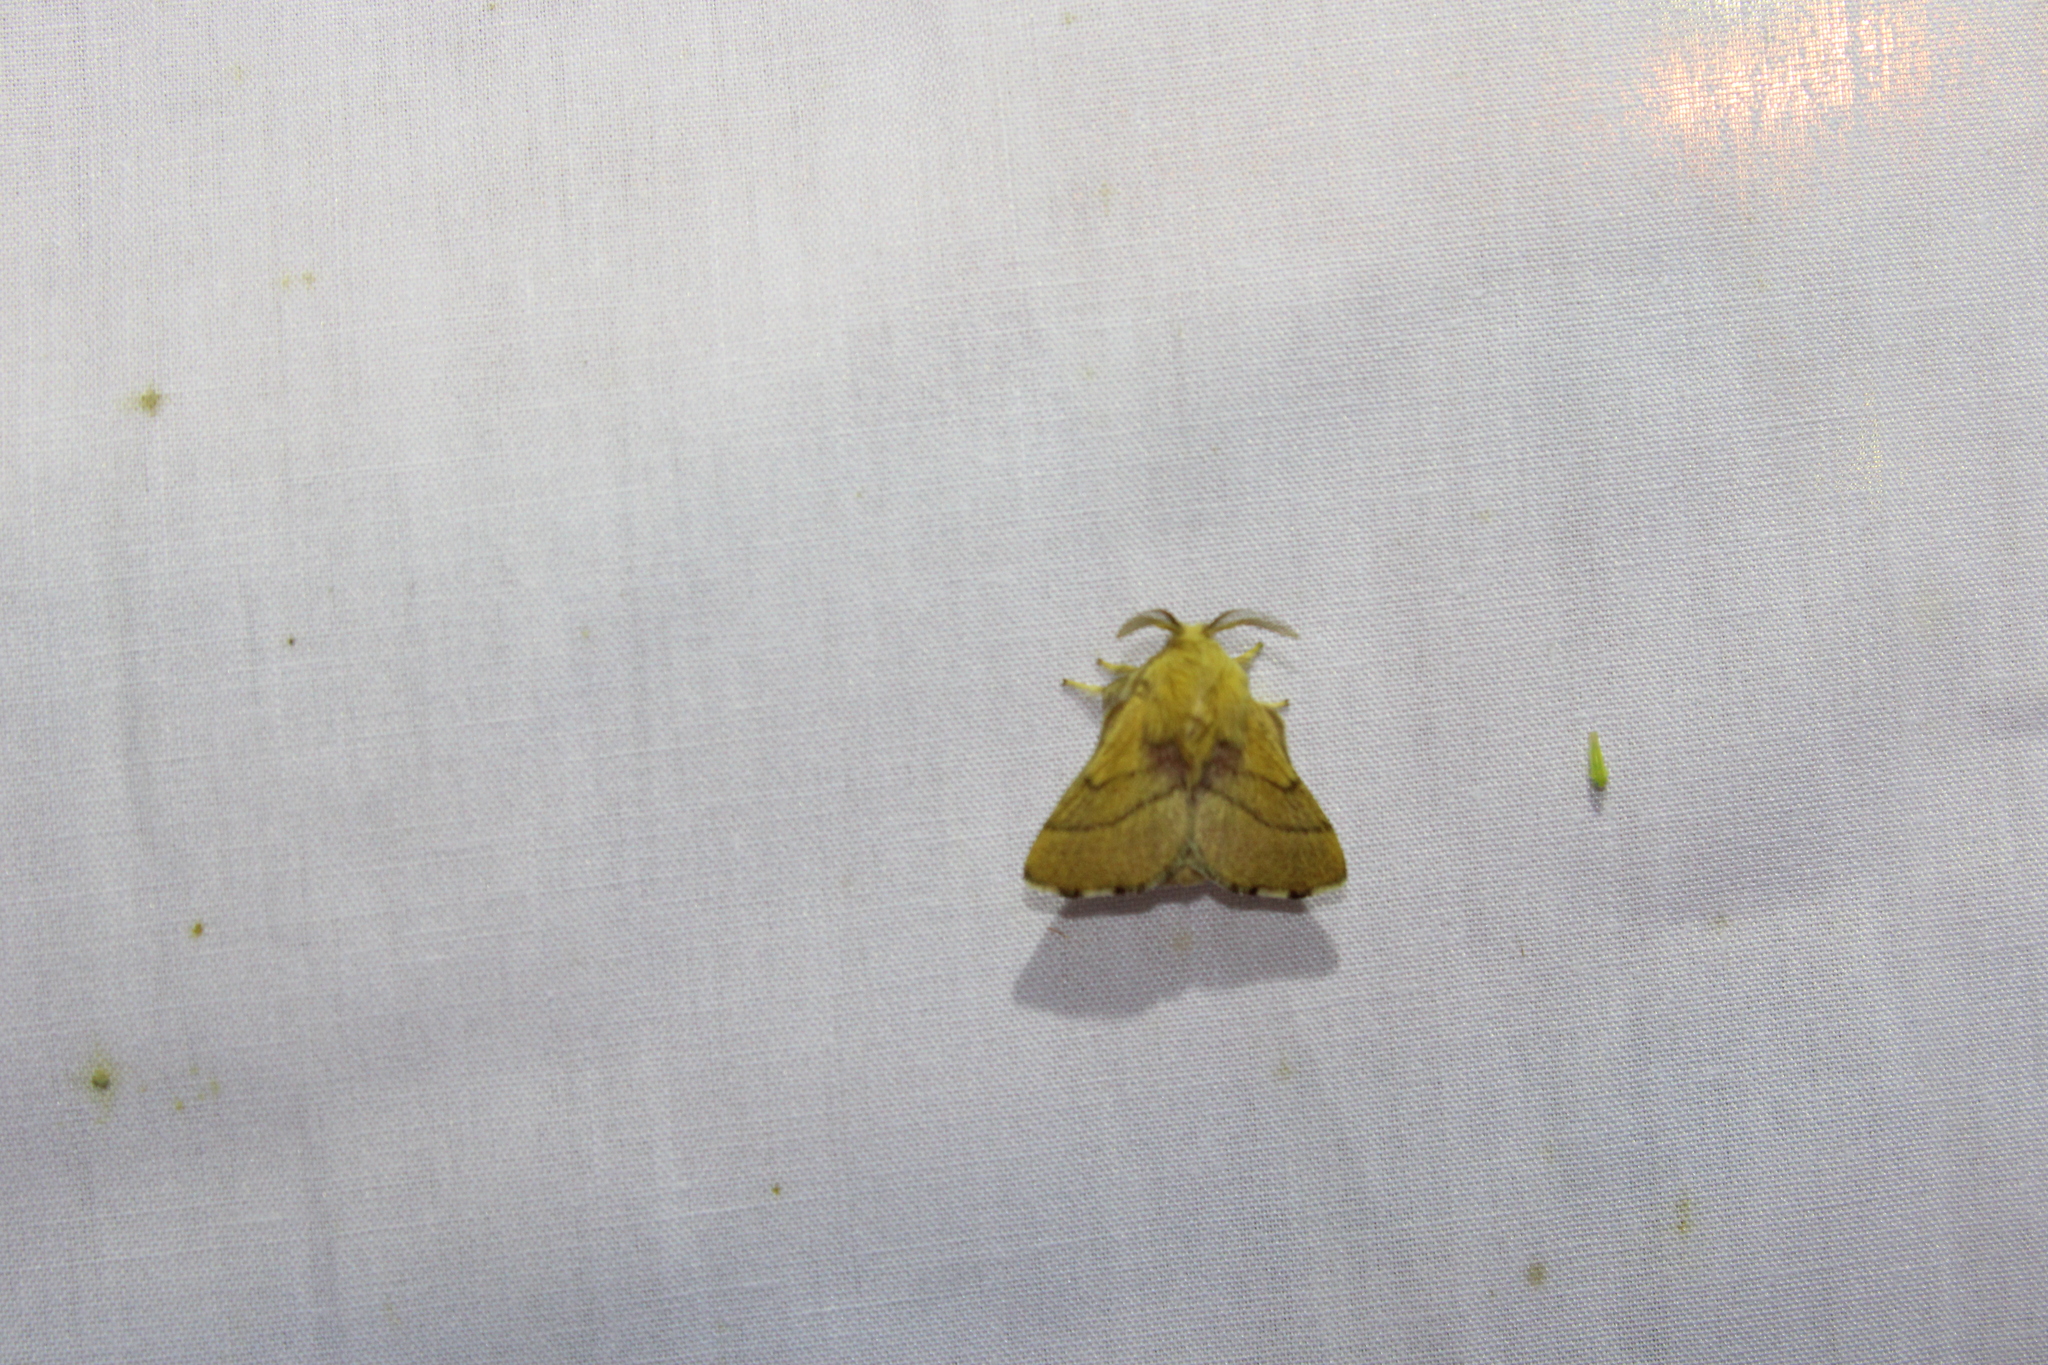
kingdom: Animalia
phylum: Arthropoda
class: Insecta
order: Lepidoptera
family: Lasiocampidae
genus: Malacosoma
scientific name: Malacosoma disstria
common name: Forest tent caterpillar
